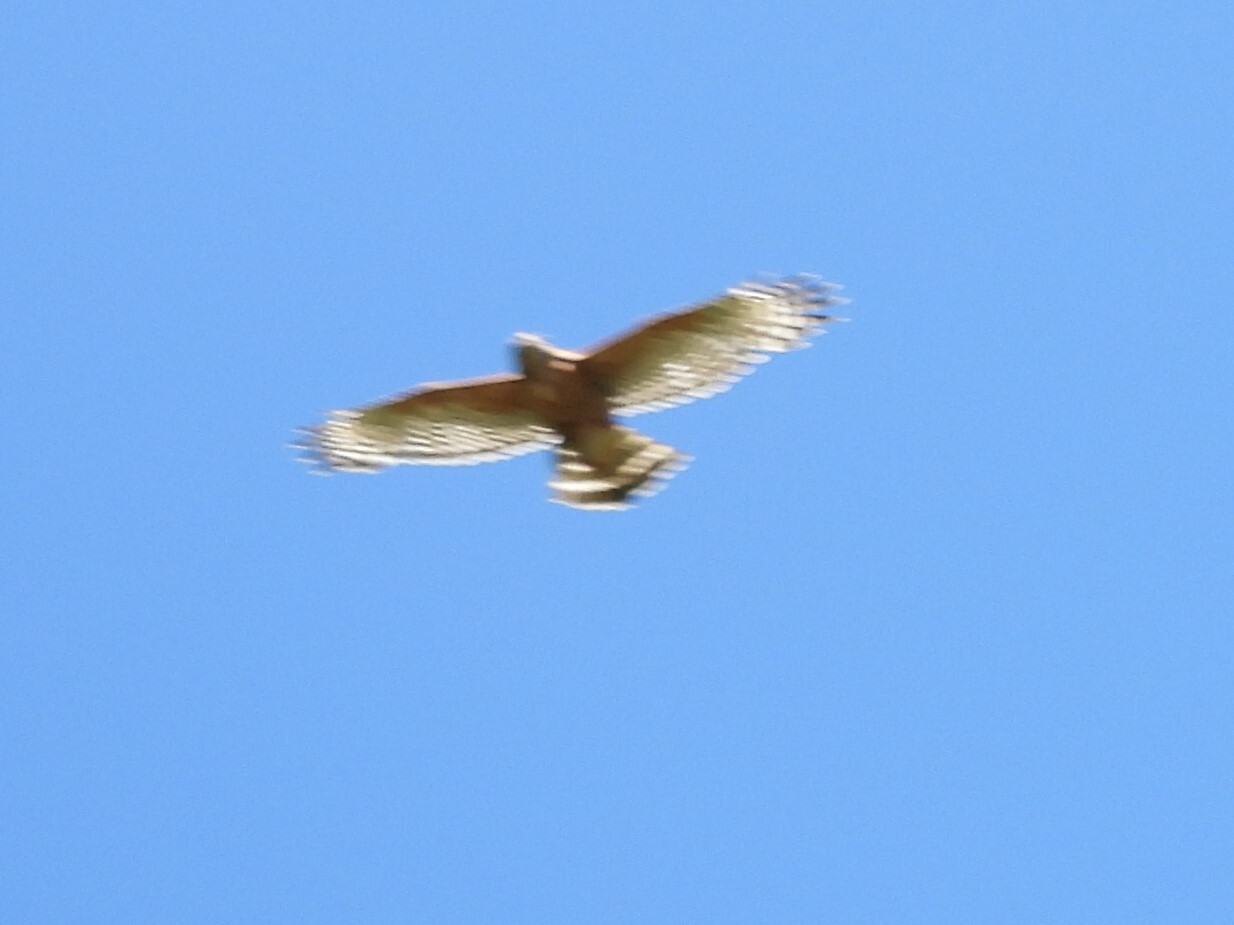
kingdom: Animalia
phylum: Chordata
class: Aves
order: Accipitriformes
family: Accipitridae
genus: Buteo
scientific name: Buteo lineatus
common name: Red-shouldered hawk
